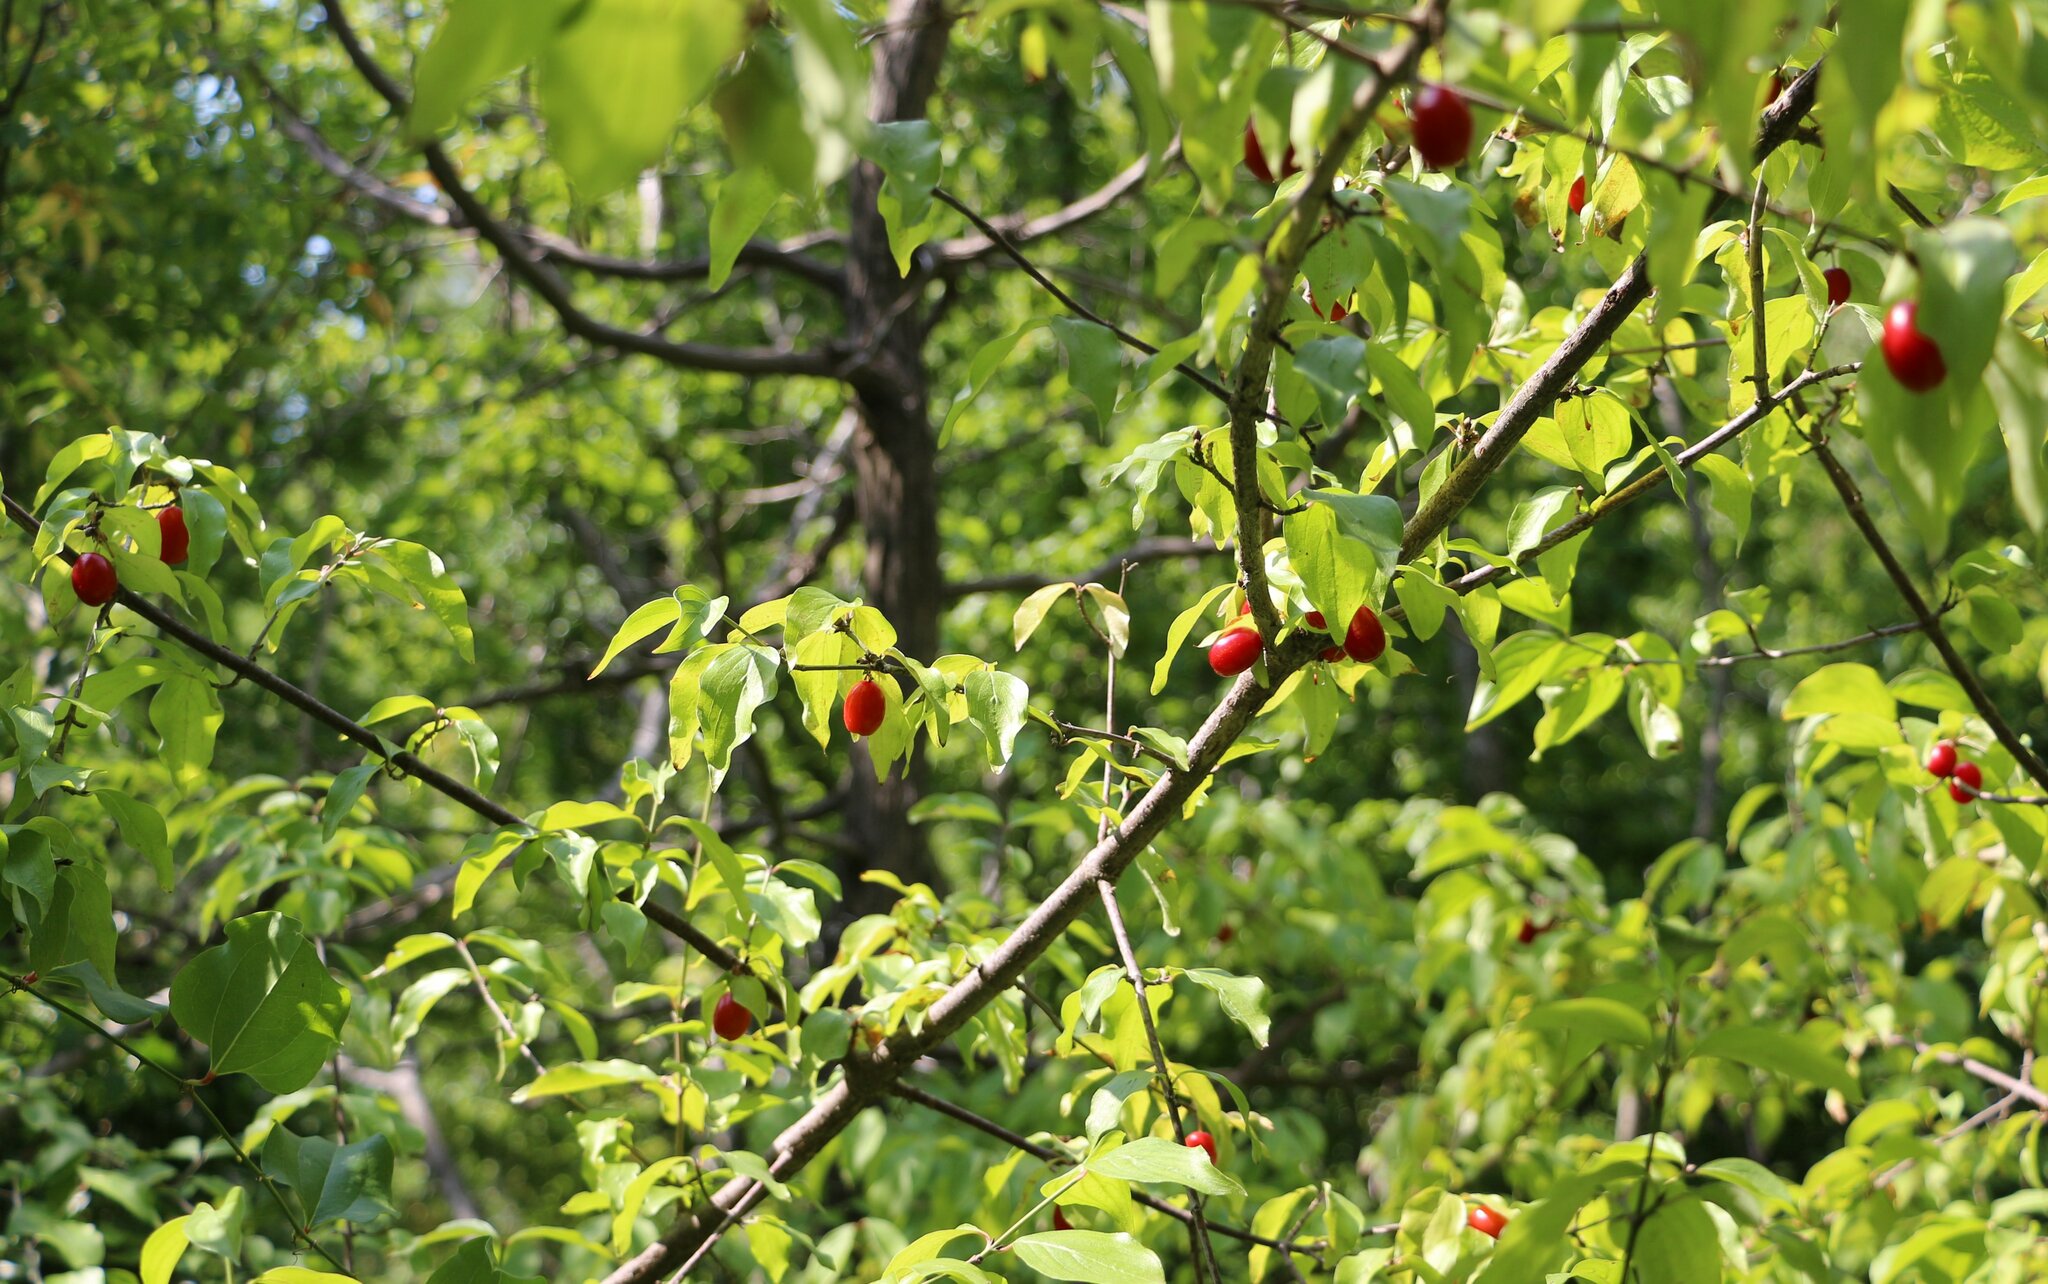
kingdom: Plantae
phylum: Tracheophyta
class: Magnoliopsida
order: Cornales
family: Cornaceae
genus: Cornus
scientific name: Cornus mas
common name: Cornelian-cherry
